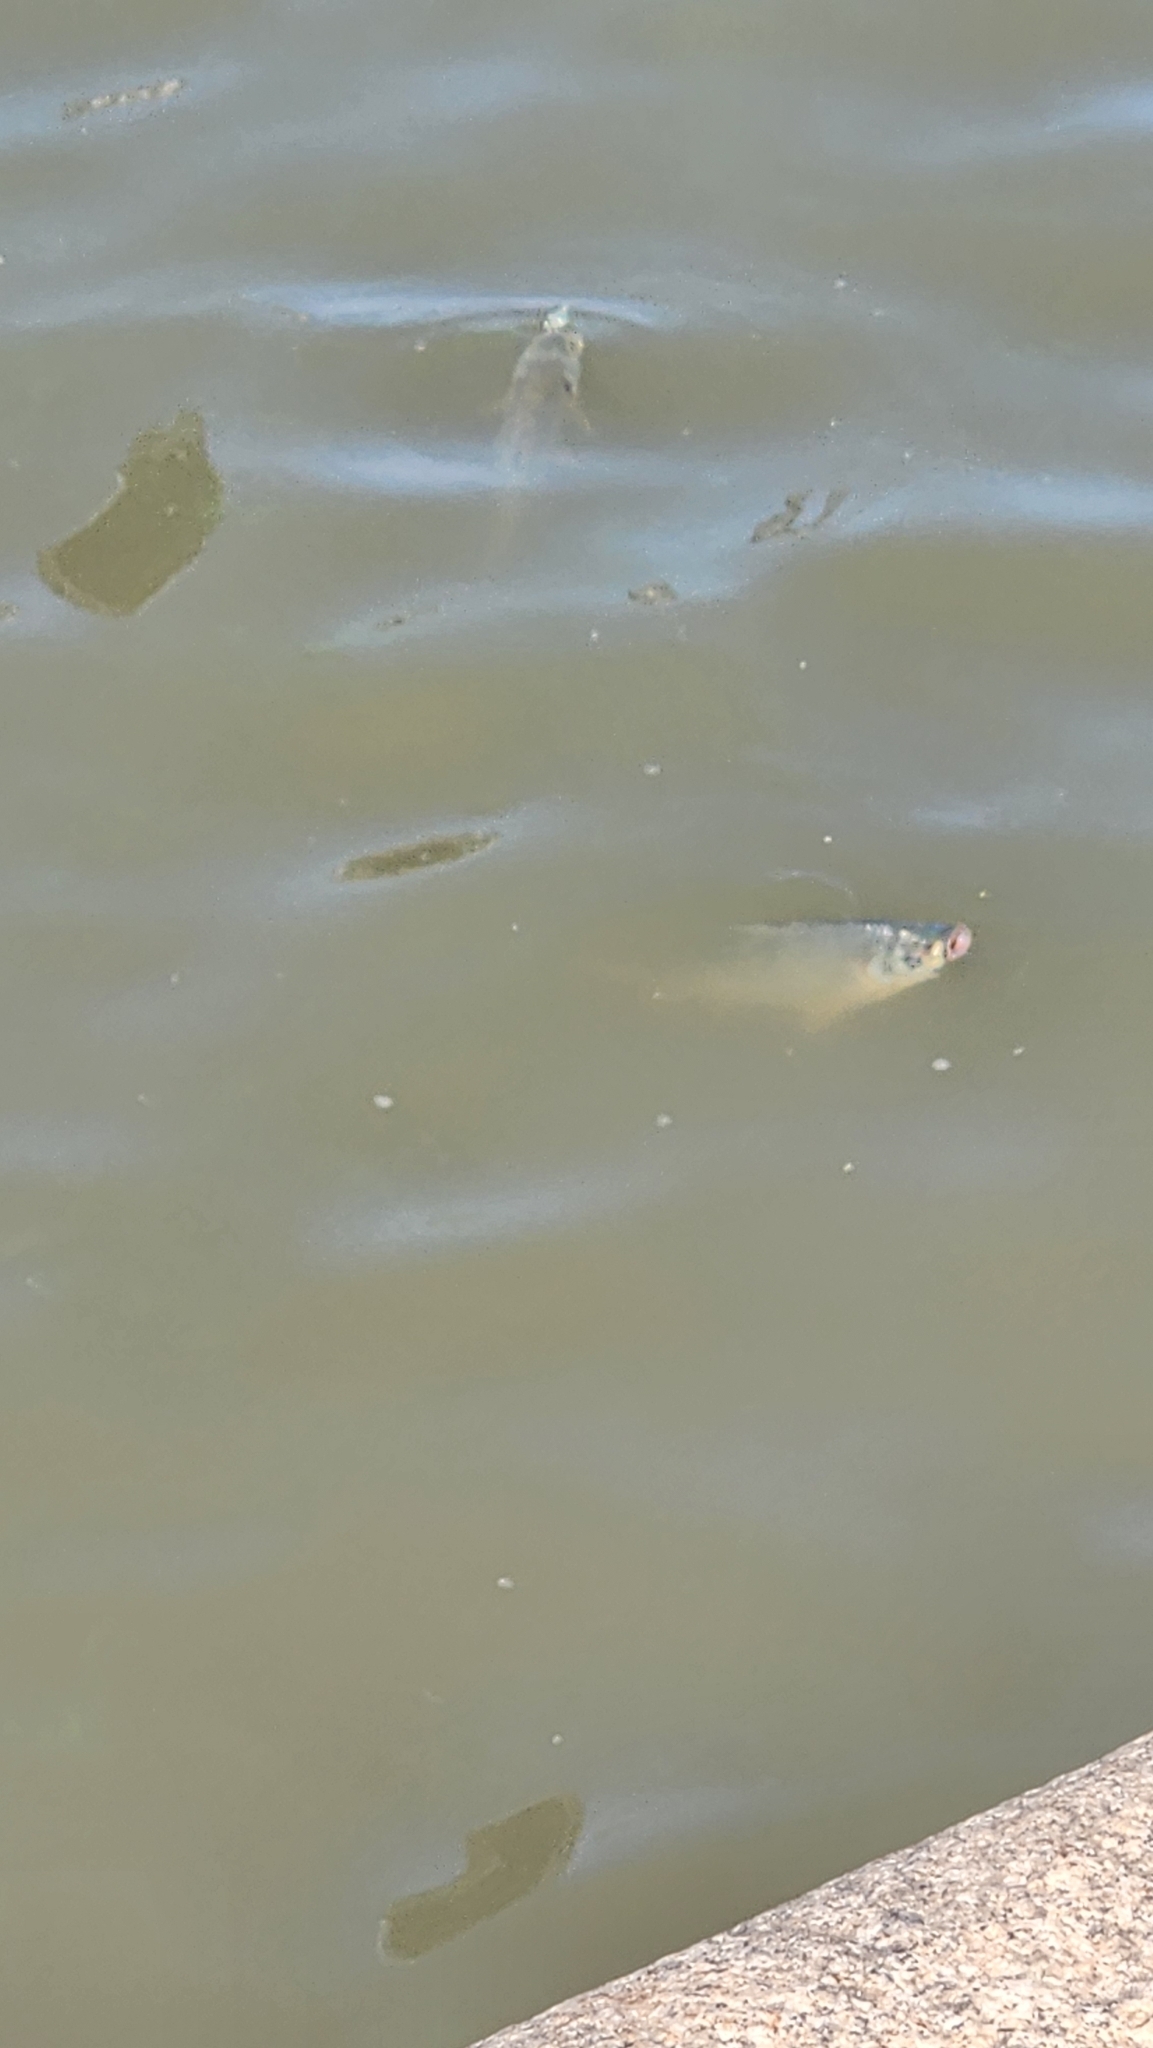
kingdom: Animalia
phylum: Chordata
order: Characiformes
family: Prochilodontidae
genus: Prochilodus
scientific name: Prochilodus lineatus
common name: Curimbata
